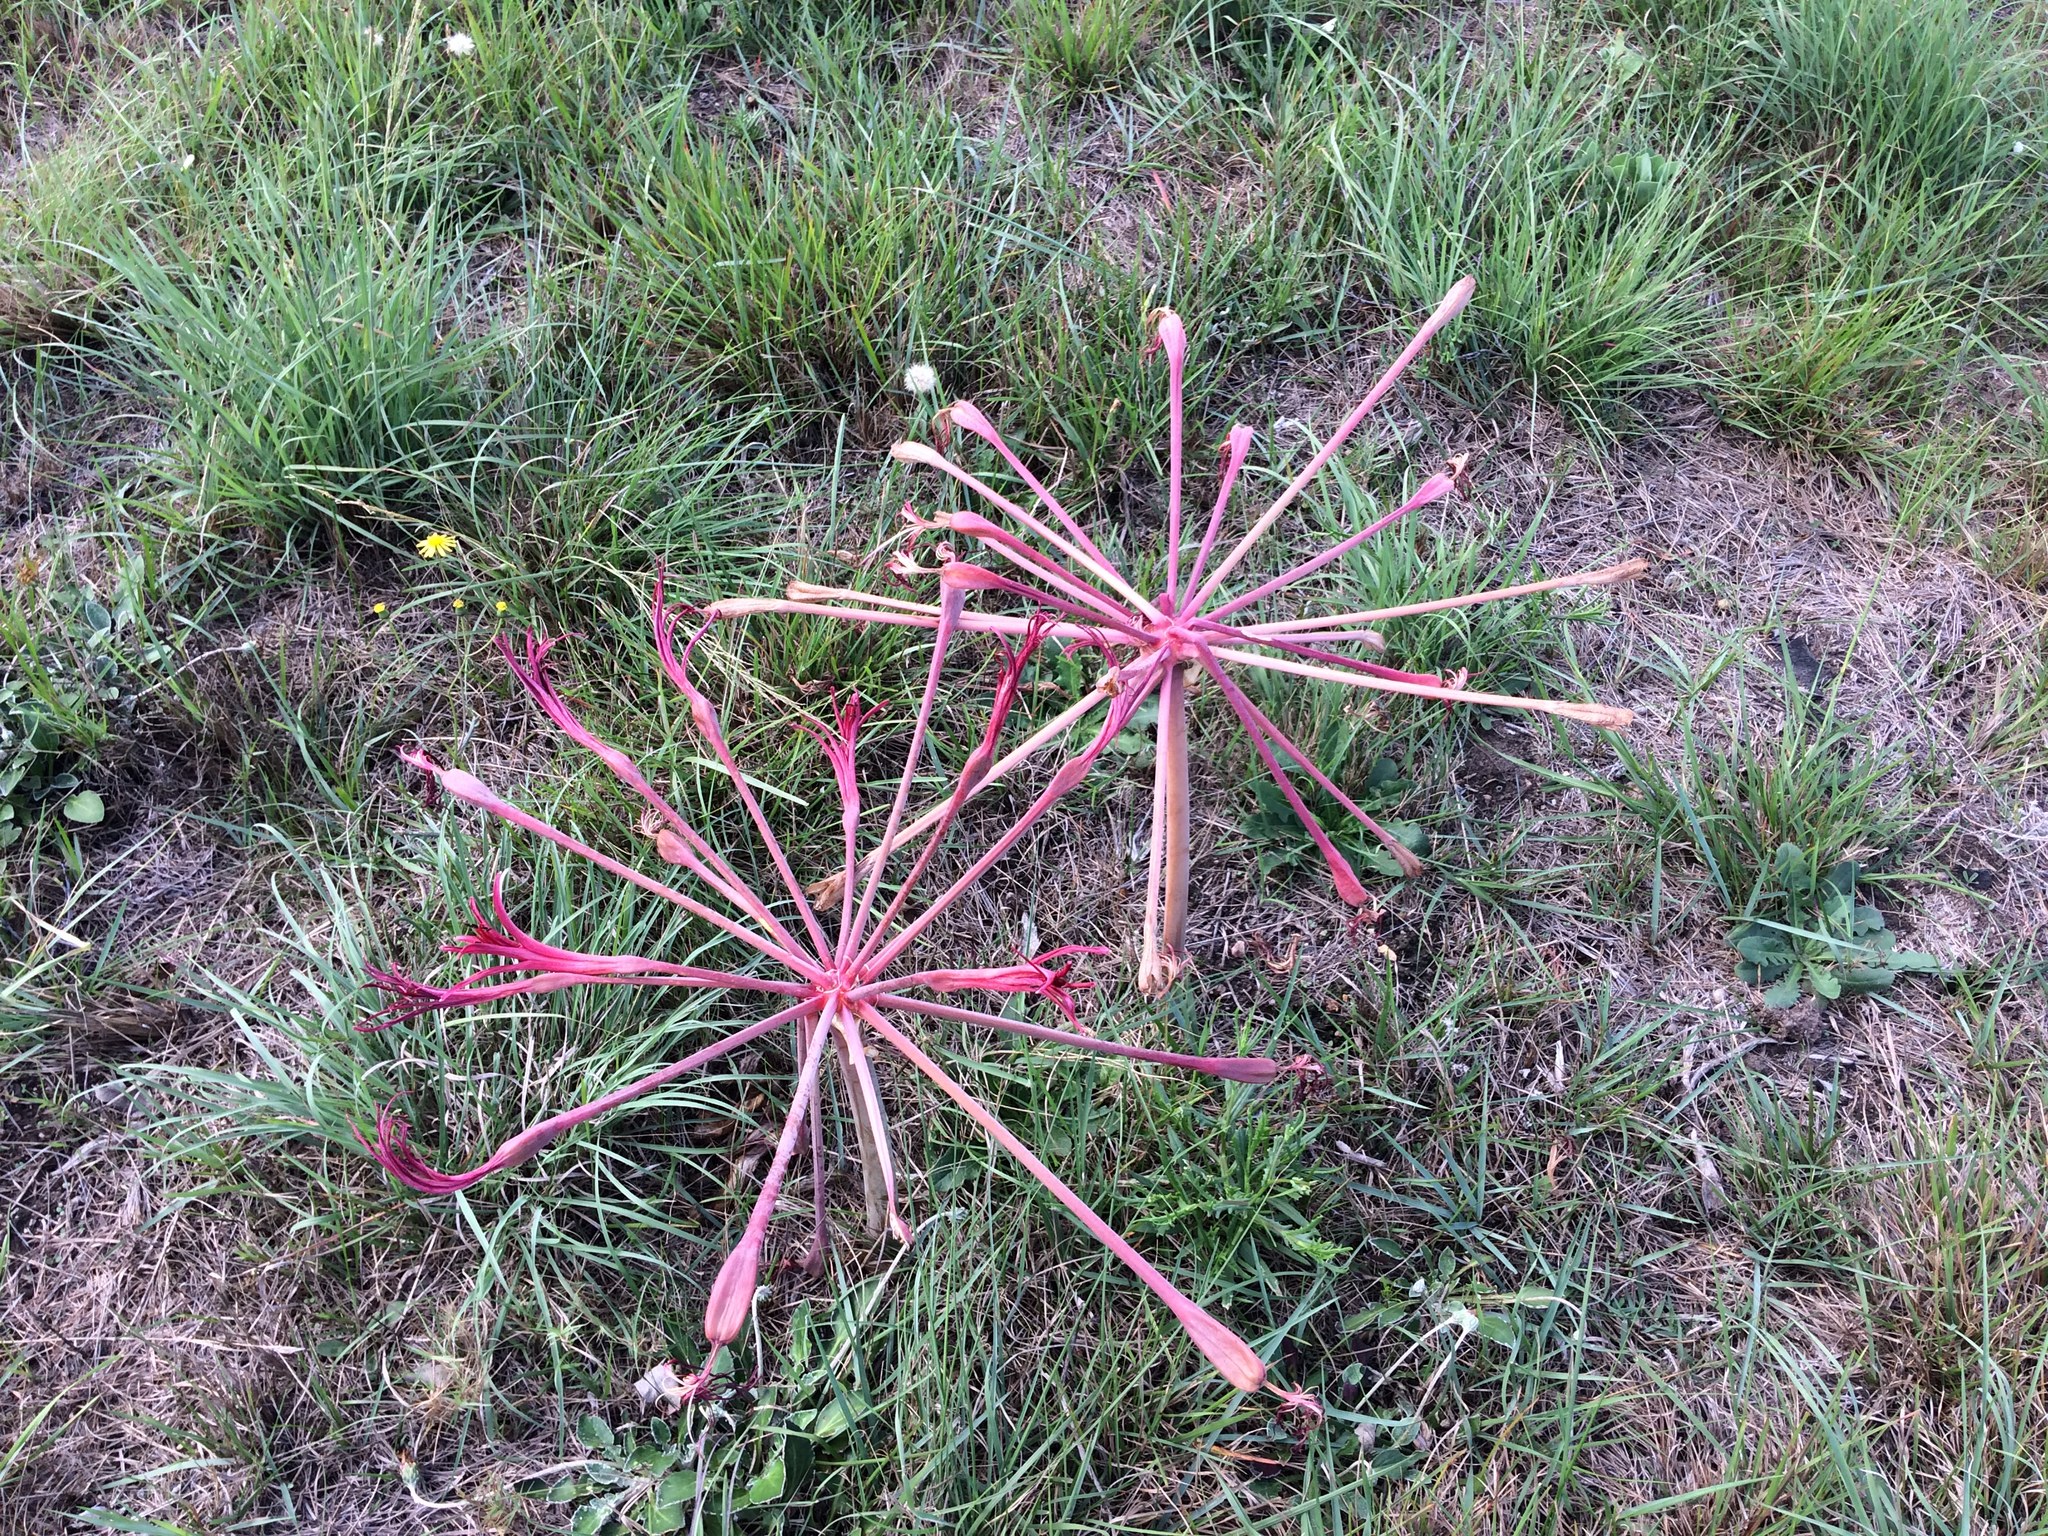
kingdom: Plantae
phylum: Tracheophyta
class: Liliopsida
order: Asparagales
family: Amaryllidaceae
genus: Brunsvigia
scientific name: Brunsvigia litoralis
